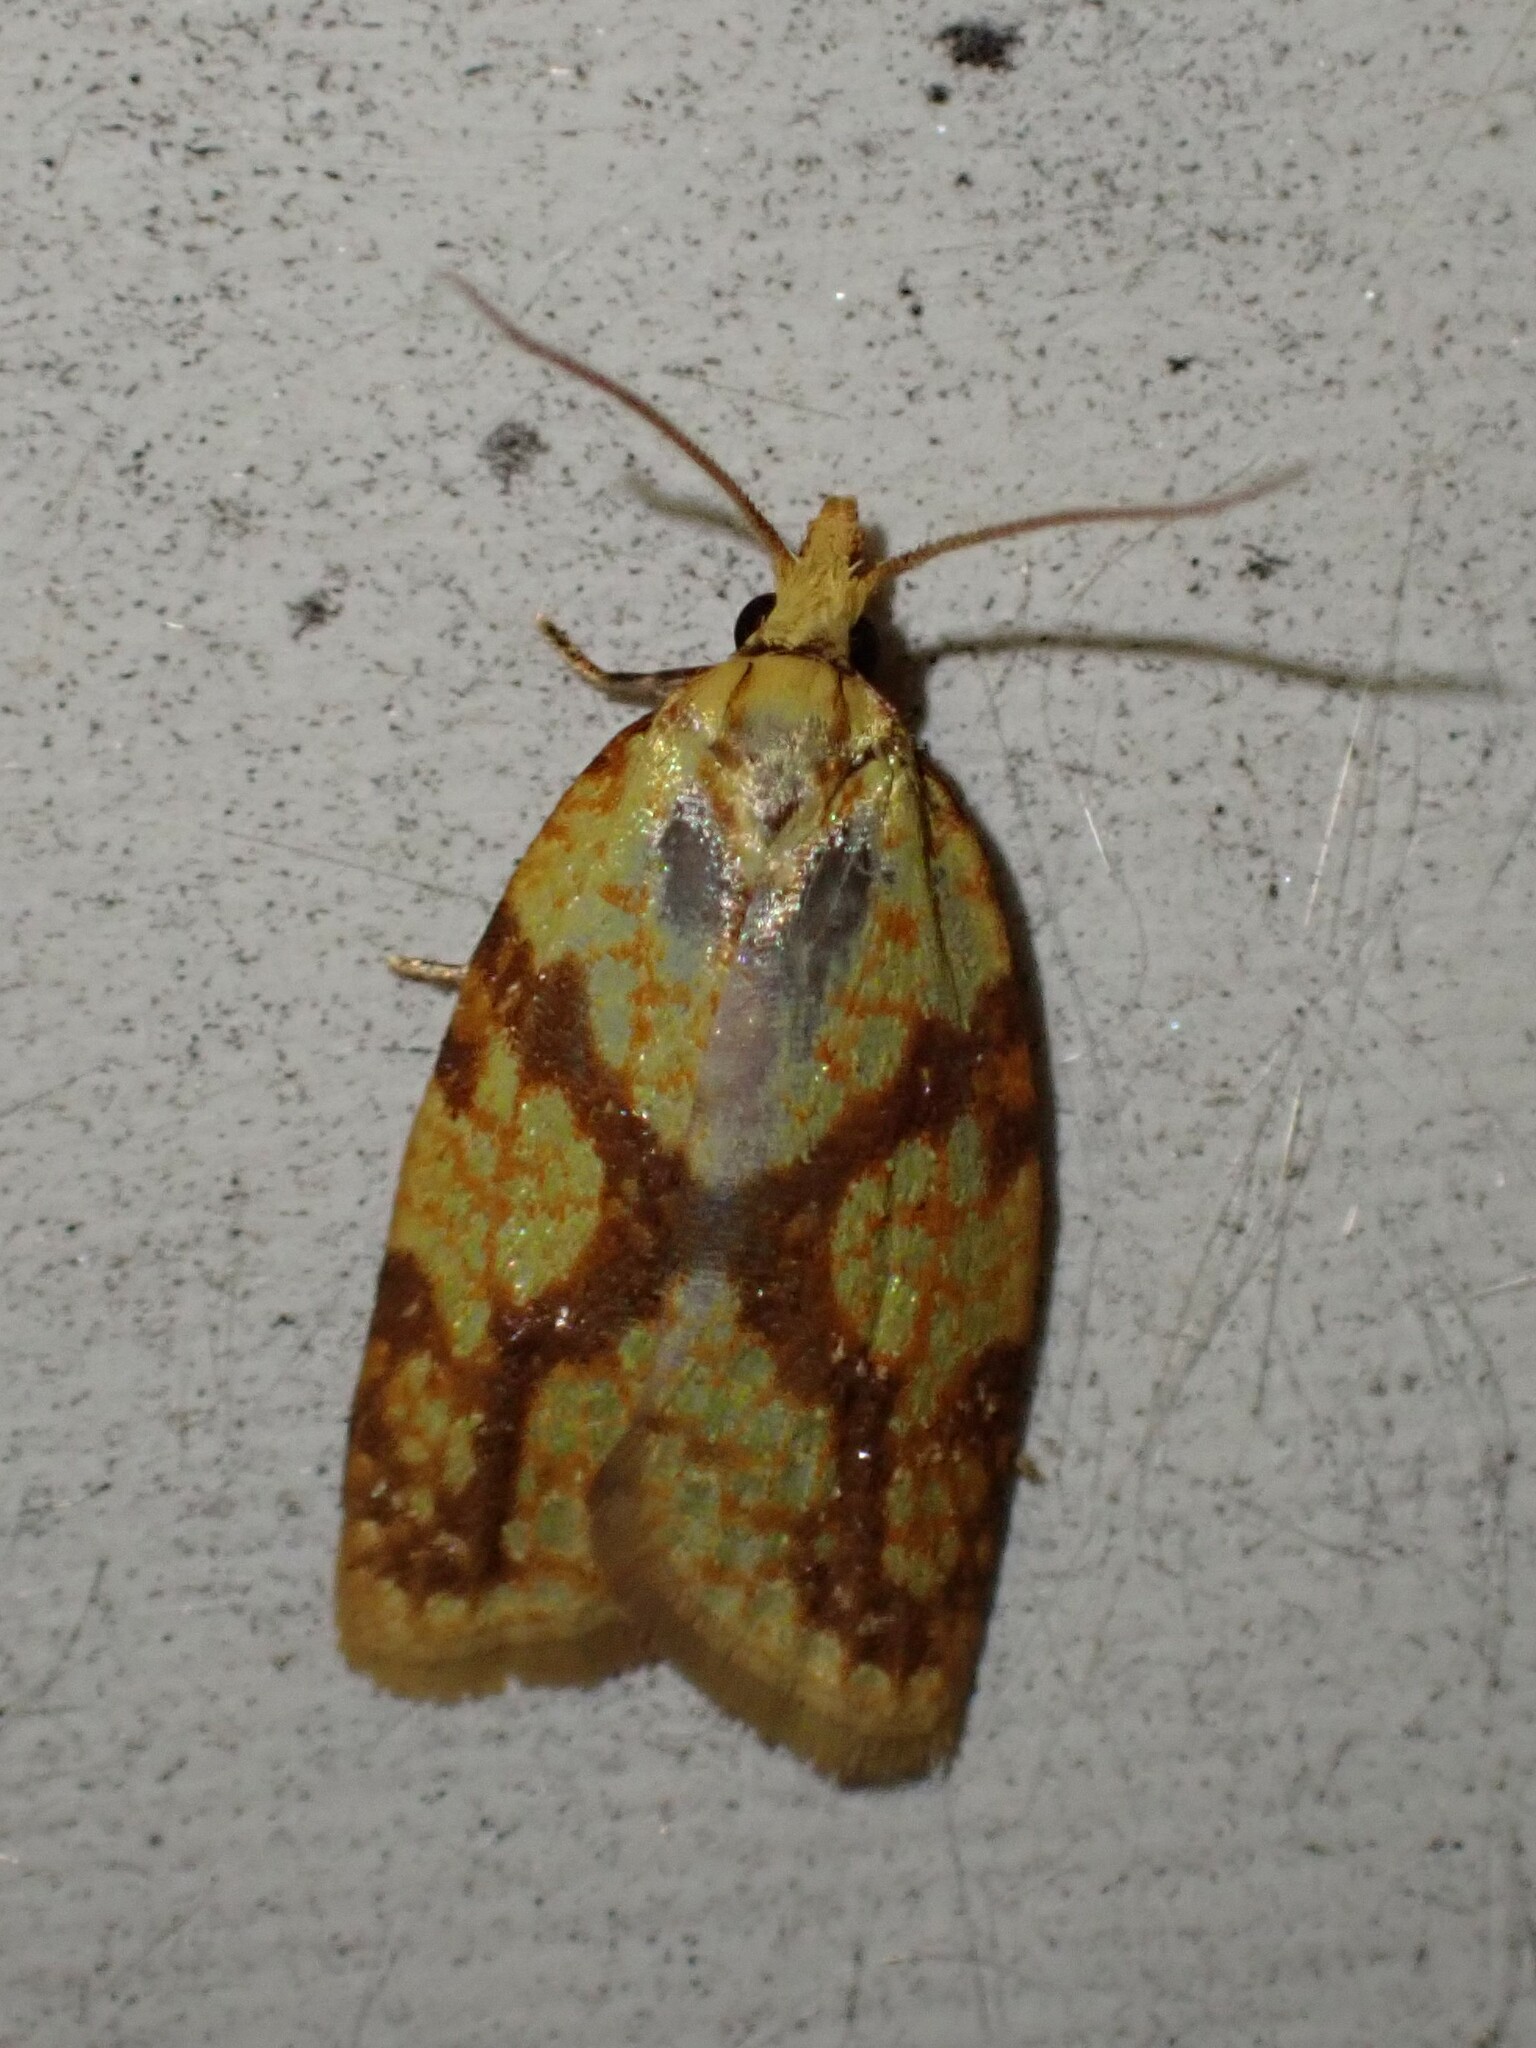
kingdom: Animalia
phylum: Arthropoda
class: Insecta
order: Lepidoptera
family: Tortricidae
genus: Sparganothis
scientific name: Sparganothis sulfureana
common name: Sparganothis fruitworm moth
